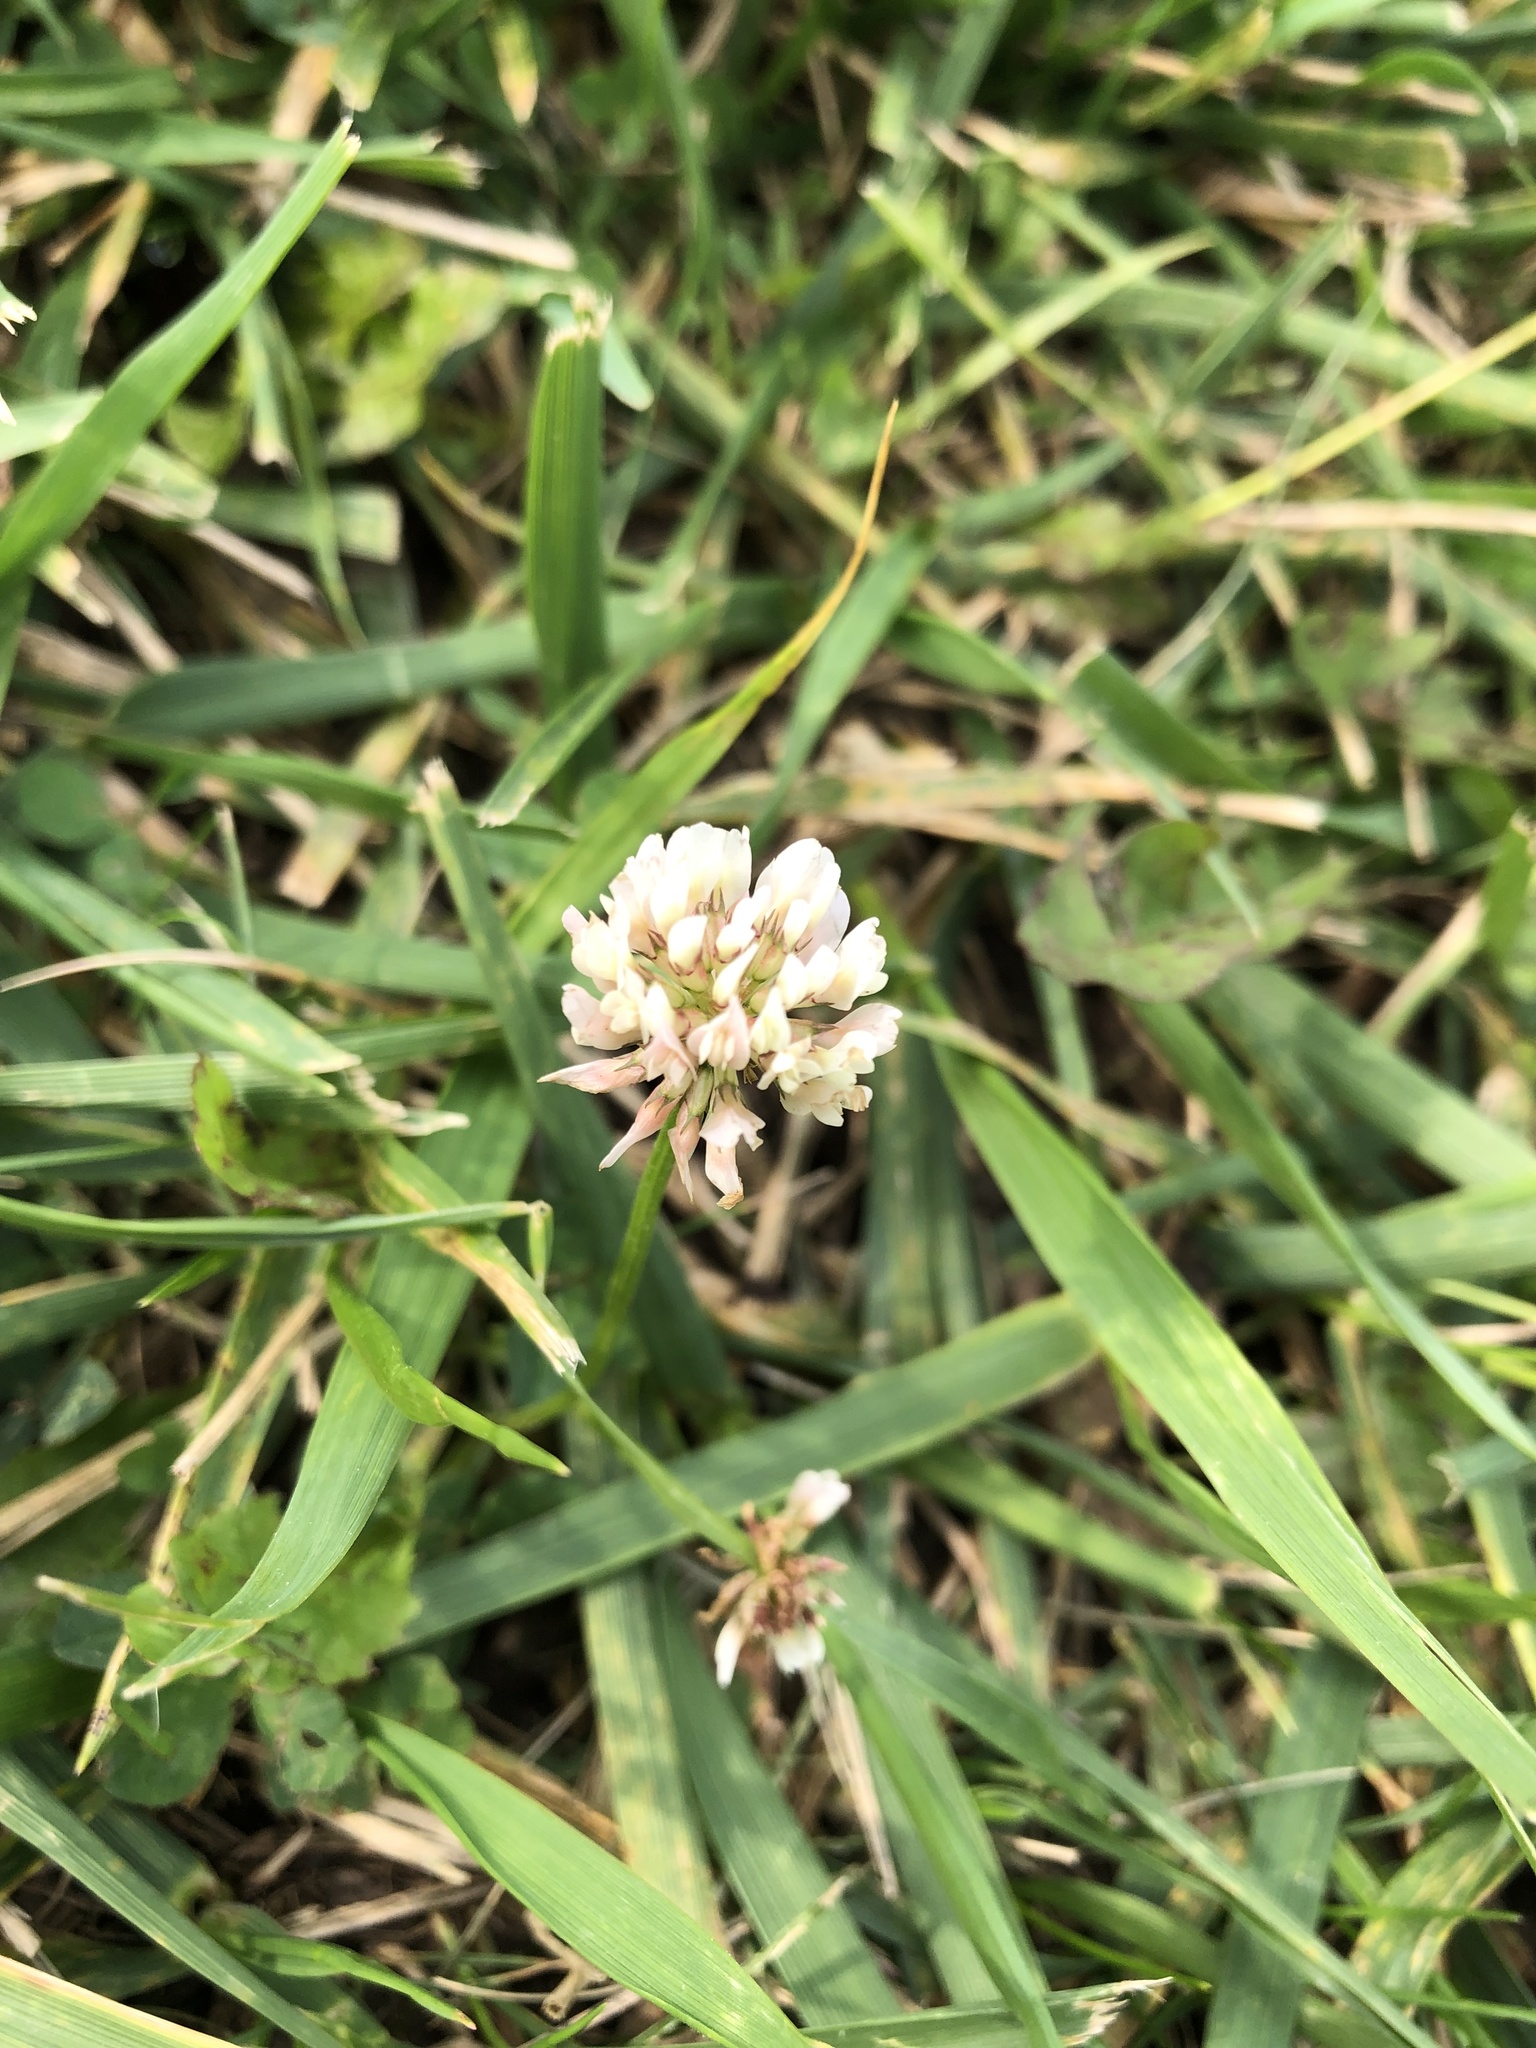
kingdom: Plantae
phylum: Tracheophyta
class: Magnoliopsida
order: Fabales
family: Fabaceae
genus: Trifolium
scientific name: Trifolium repens
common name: White clover
